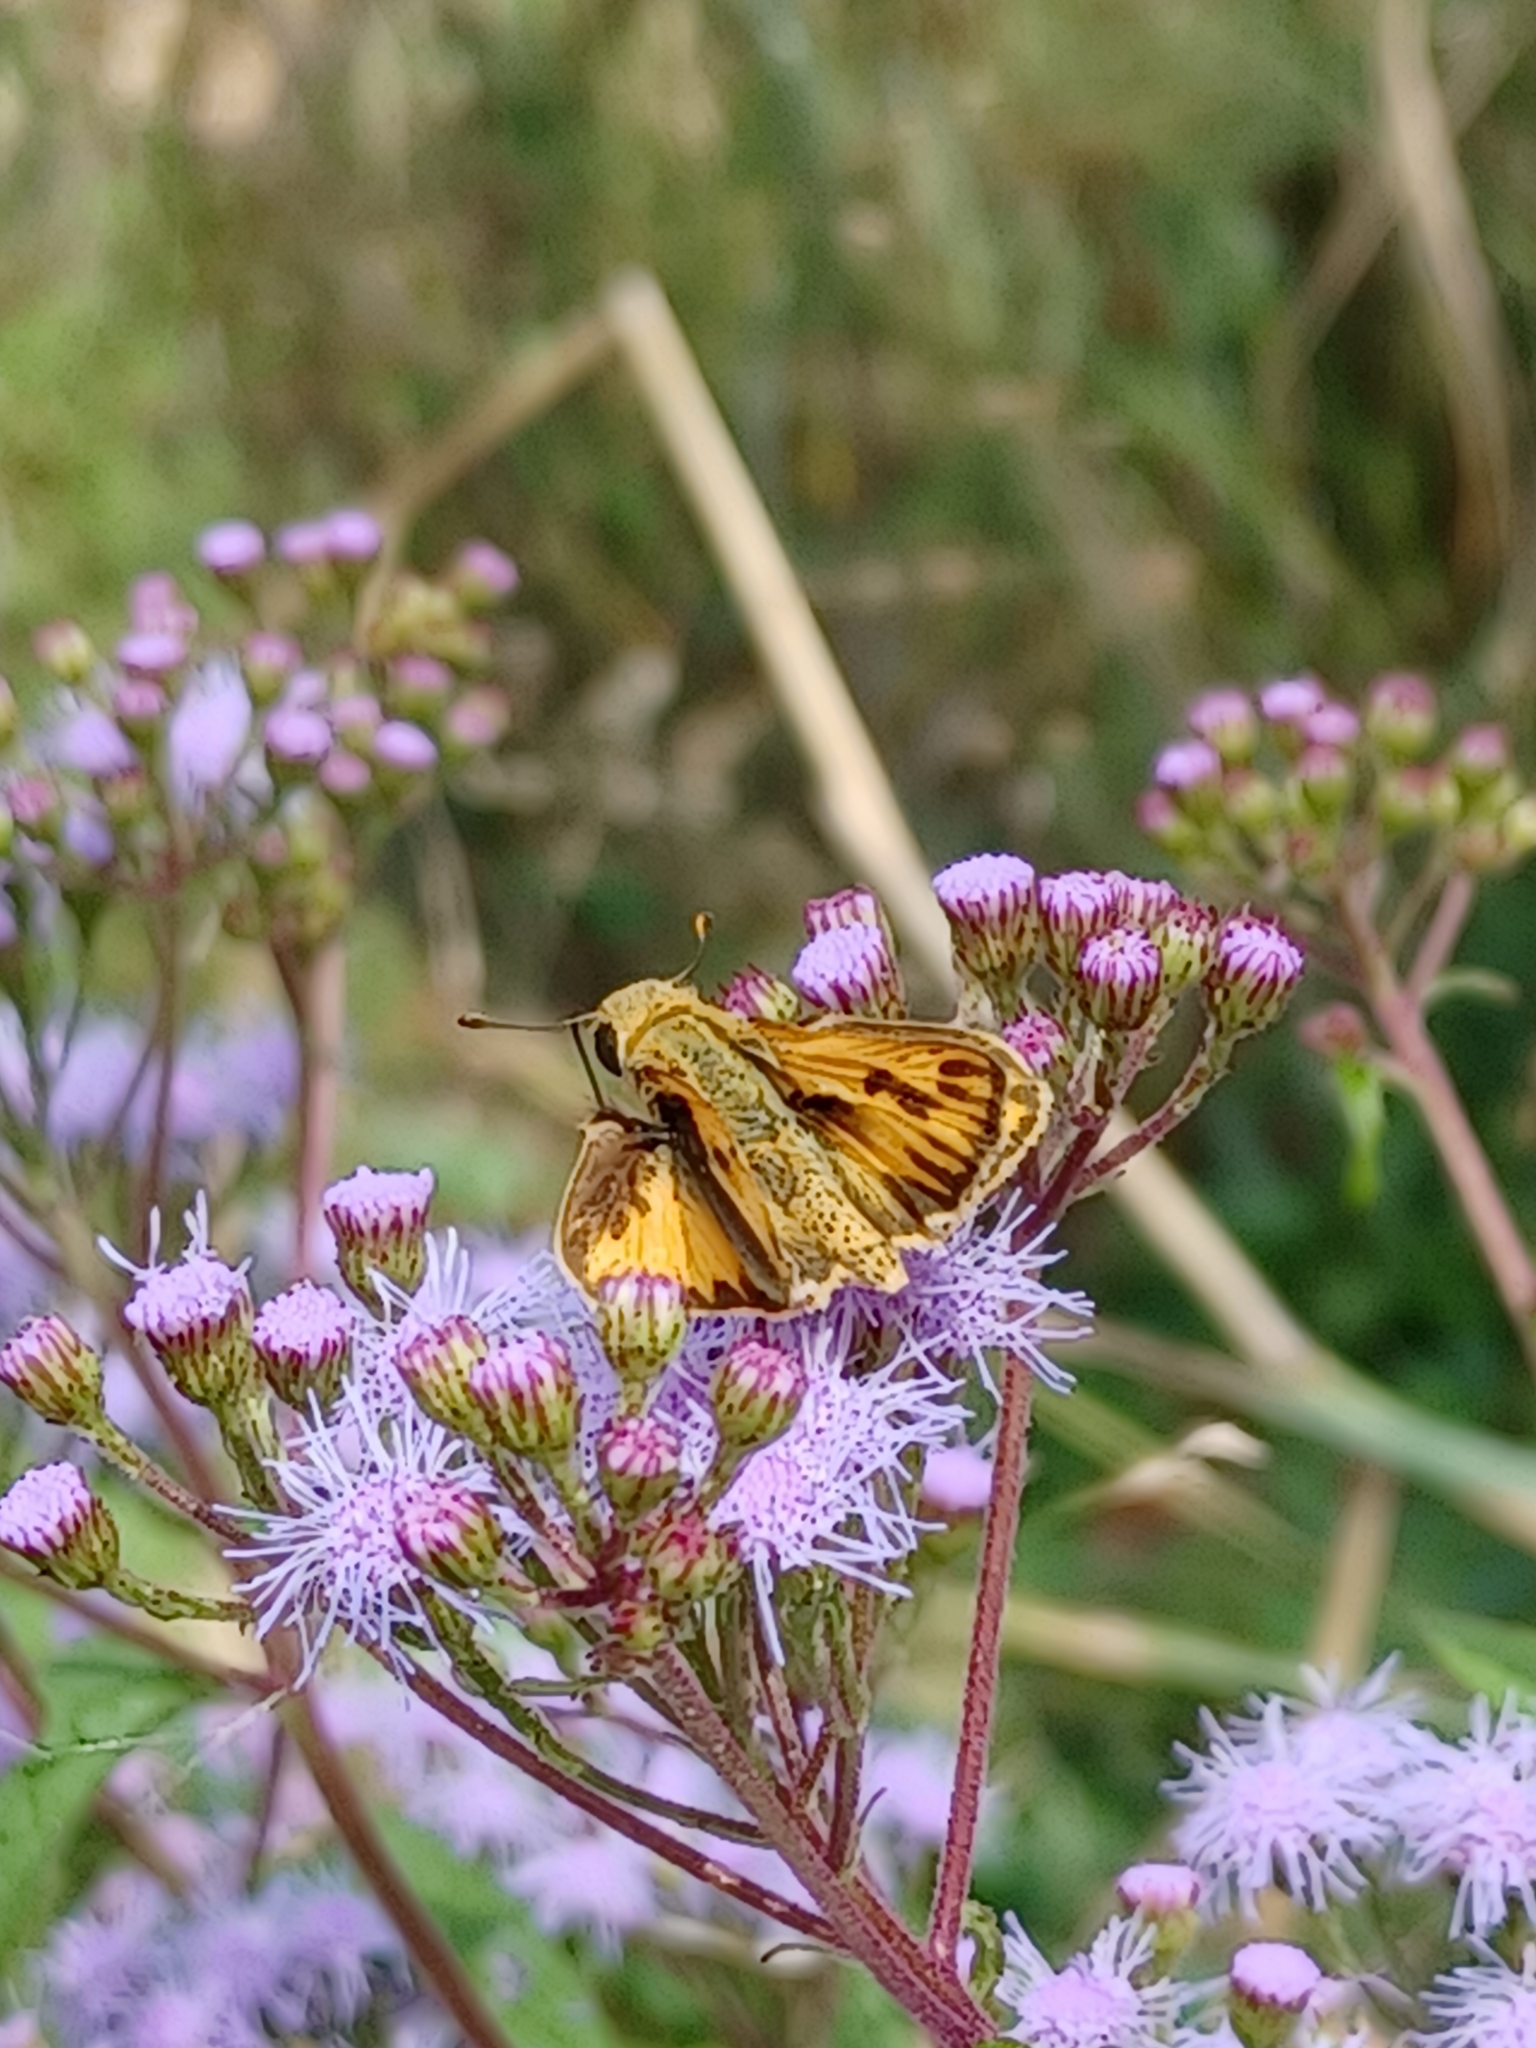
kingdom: Animalia
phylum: Arthropoda
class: Insecta
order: Lepidoptera
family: Hesperiidae
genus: Hylephila
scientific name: Hylephila phyleus
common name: Fiery skipper
